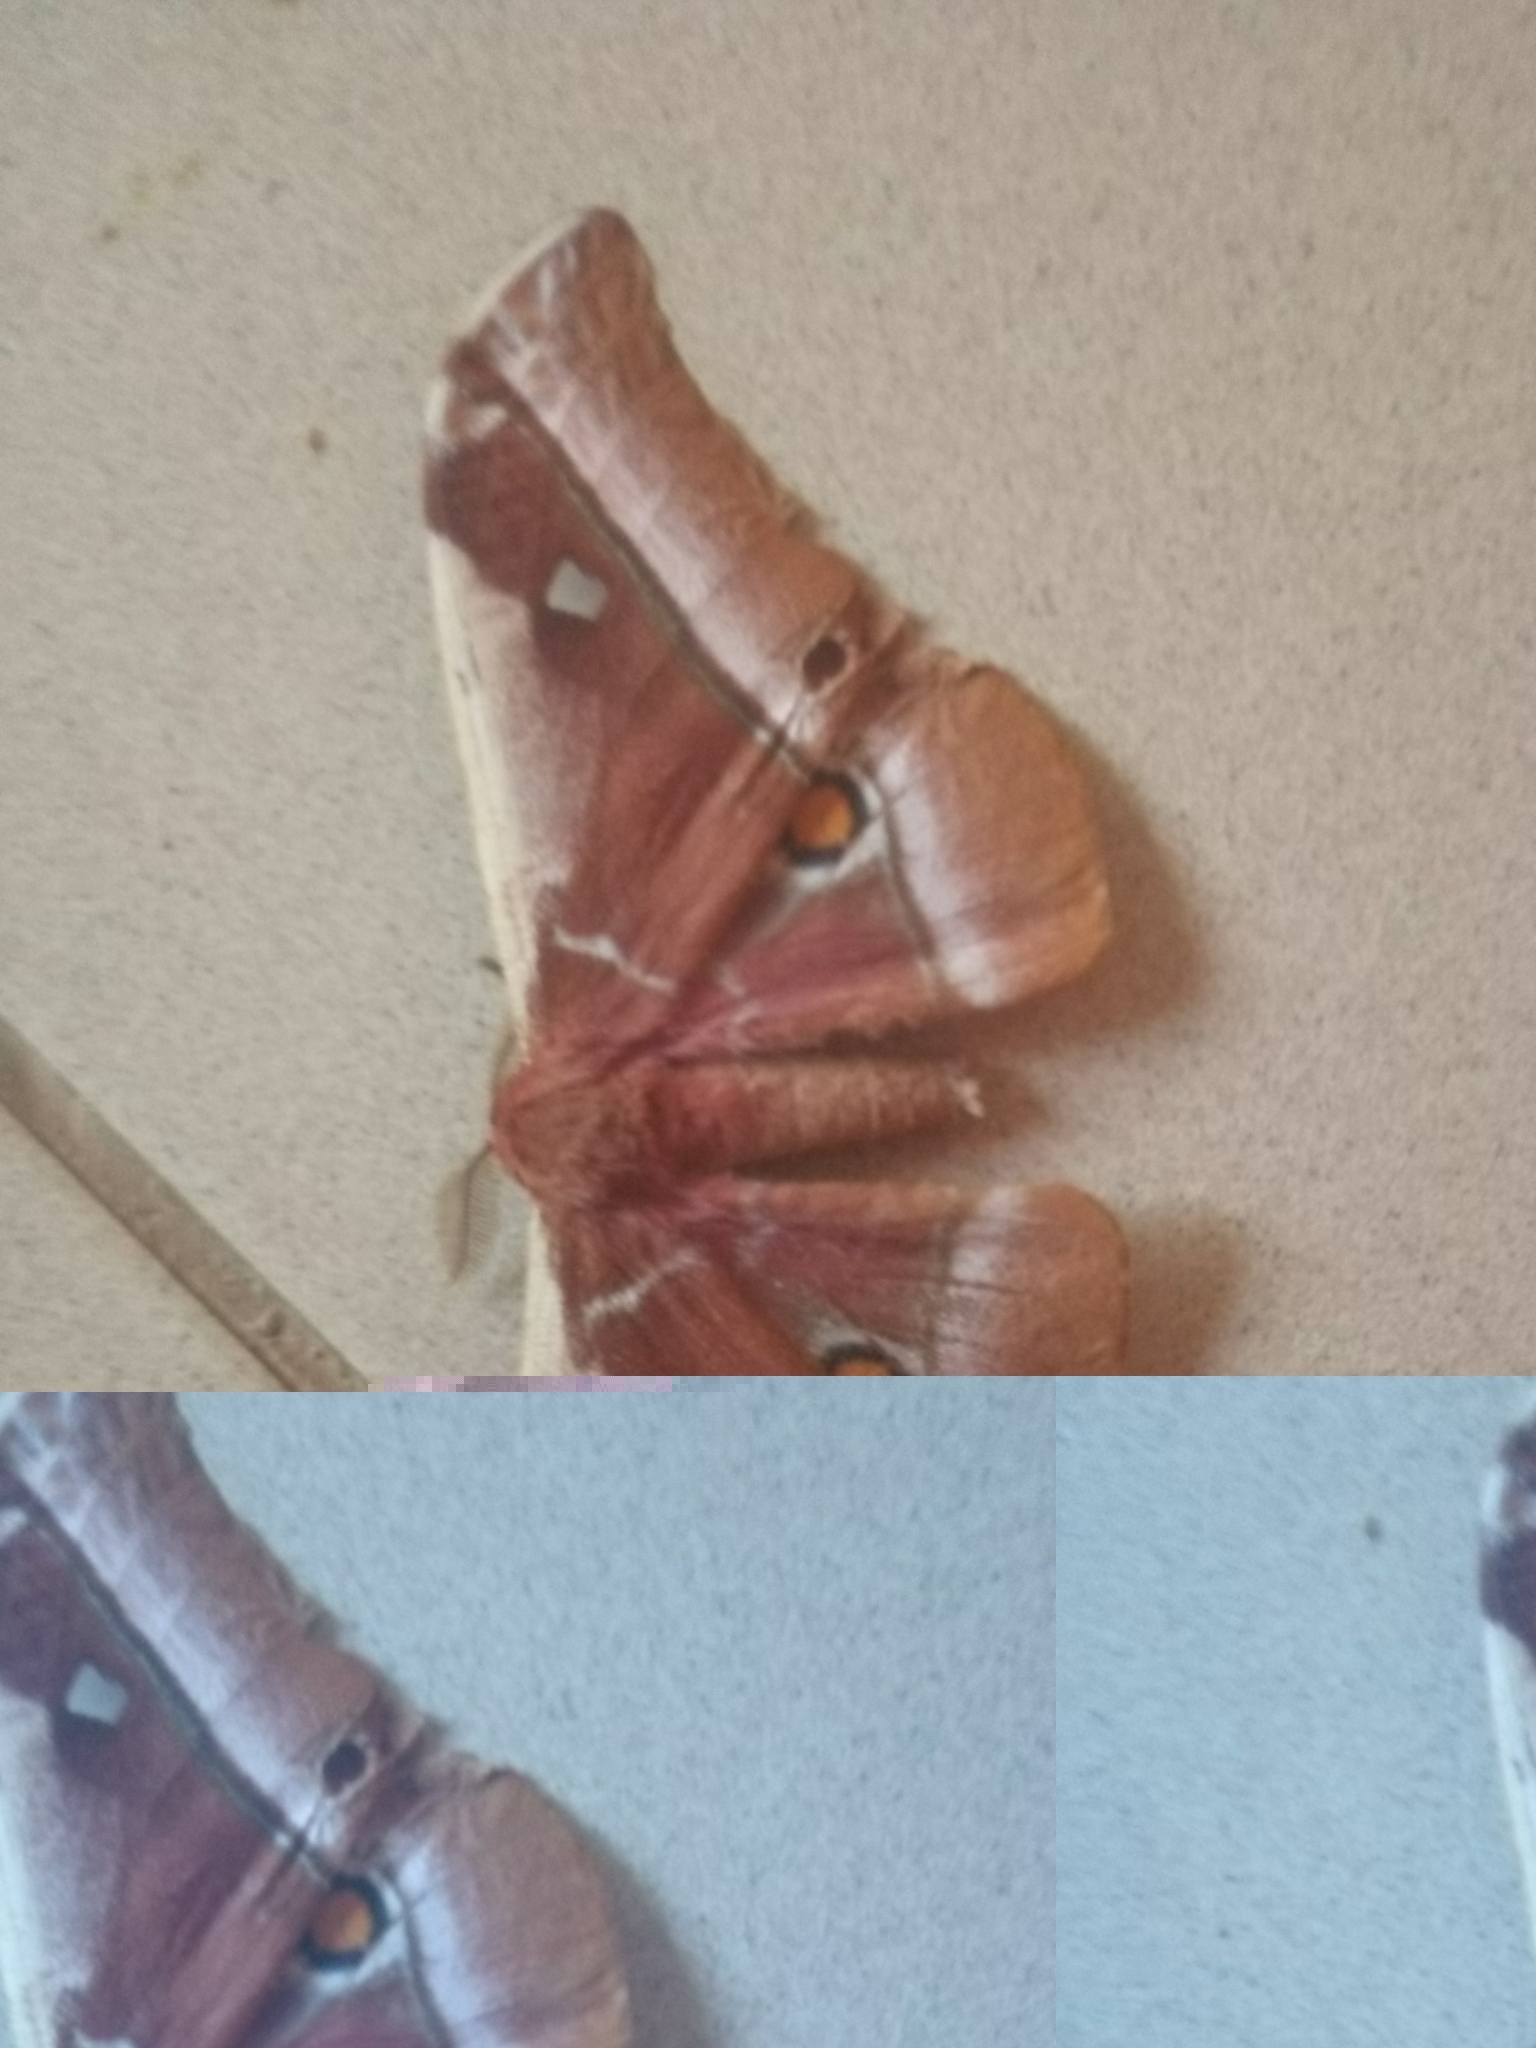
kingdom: Animalia
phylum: Arthropoda
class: Insecta
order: Lepidoptera
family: Saturniidae
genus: Bunaea
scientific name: Bunaea alcinoe
